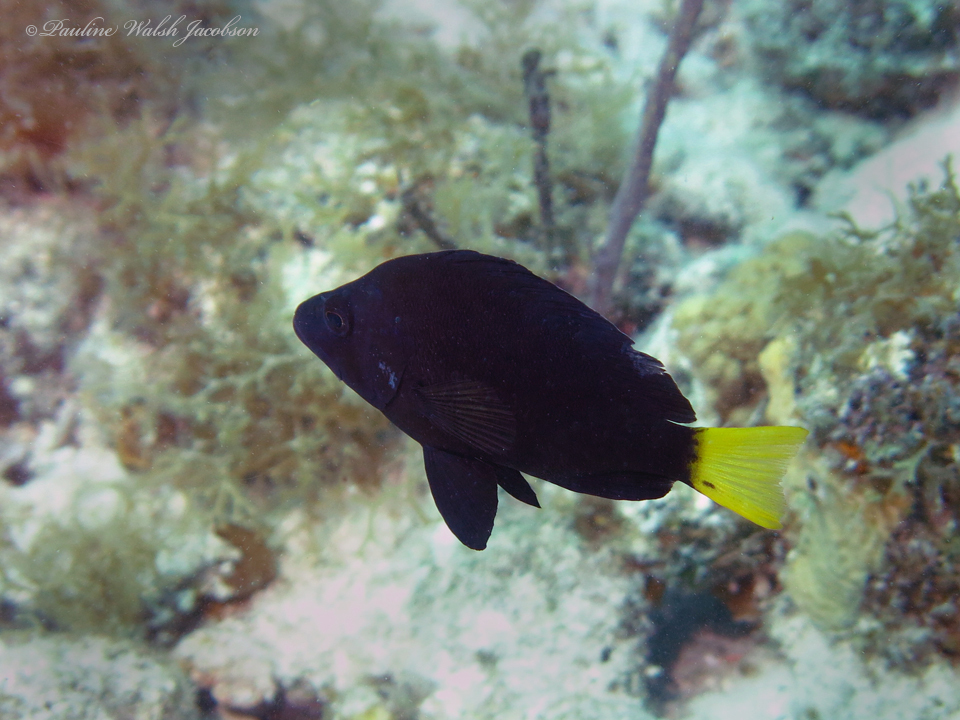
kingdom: Animalia
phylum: Chordata
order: Perciformes
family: Serranidae
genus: Hypoplectrus
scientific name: Hypoplectrus chlorurus
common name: Yellowtail hamlet
